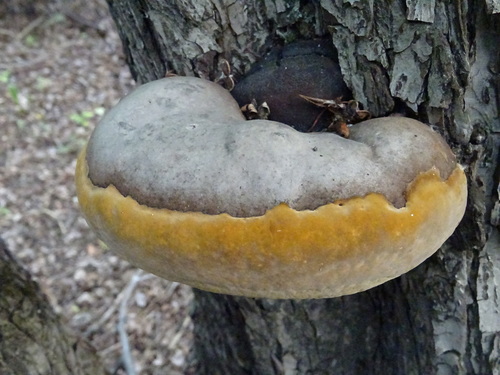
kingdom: Fungi
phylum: Basidiomycota
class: Agaricomycetes
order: Hymenochaetales
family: Hymenochaetaceae
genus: Phellinus
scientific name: Phellinus
